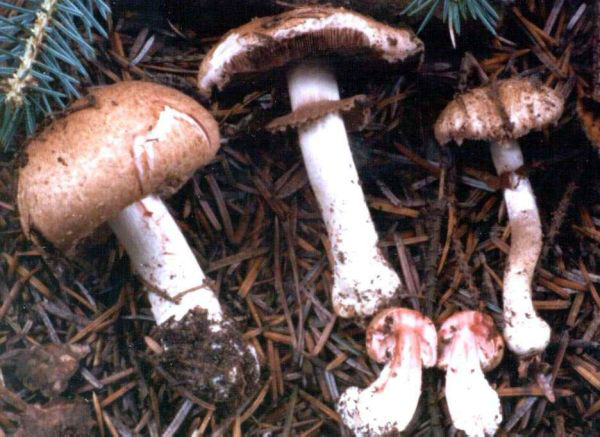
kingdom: Fungi
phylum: Basidiomycota
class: Agaricomycetes
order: Agaricales
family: Agaricaceae
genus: Agaricus
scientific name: Agaricus sylvaticus
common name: Blushing wood mushroom
